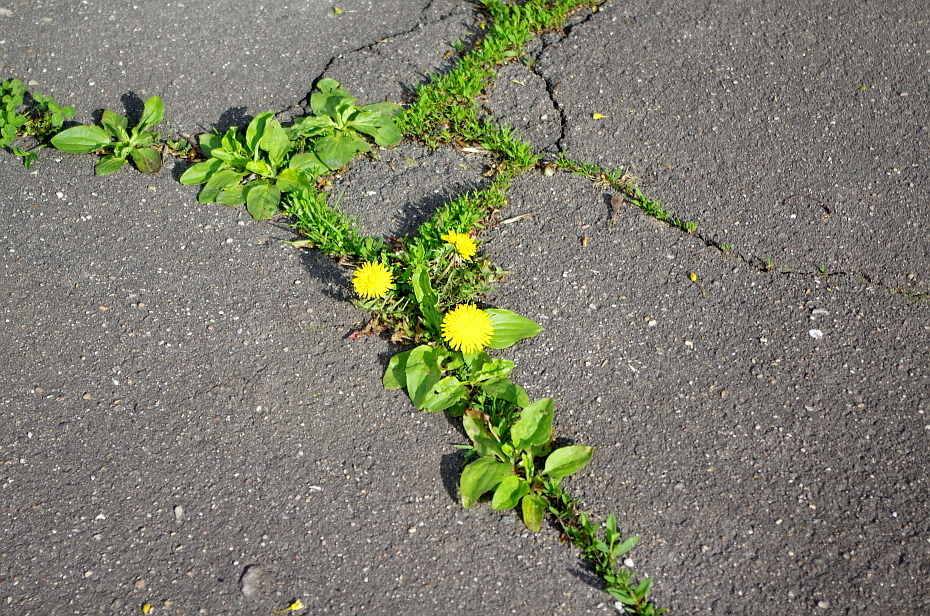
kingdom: Plantae
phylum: Tracheophyta
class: Magnoliopsida
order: Asterales
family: Asteraceae
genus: Taraxacum
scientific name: Taraxacum officinale
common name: Common dandelion
